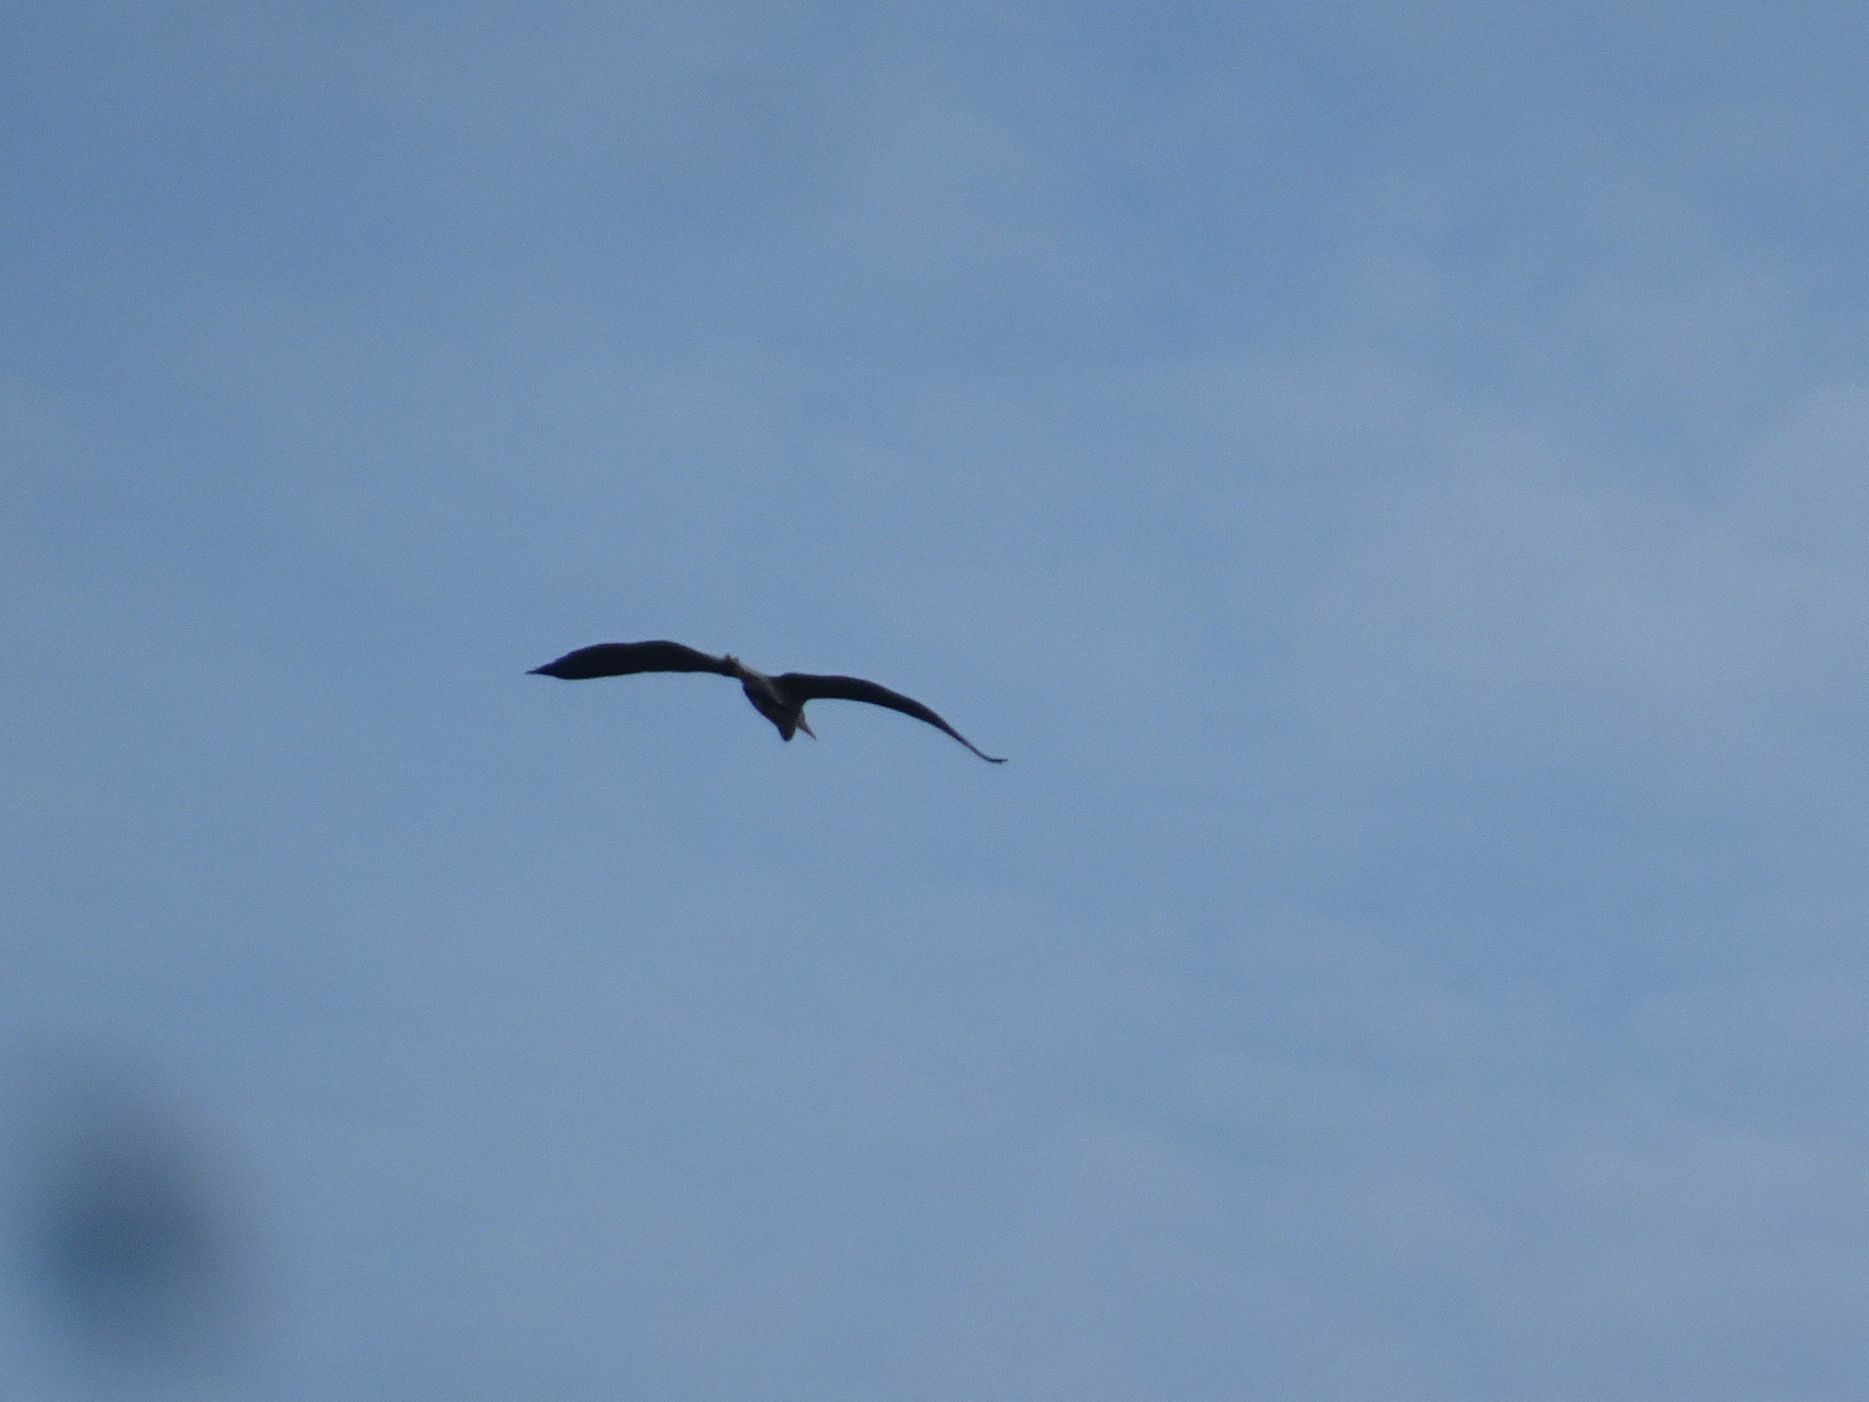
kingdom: Animalia
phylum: Chordata
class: Aves
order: Pelecaniformes
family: Ardeidae
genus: Ardea
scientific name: Ardea cinerea
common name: Grey heron
